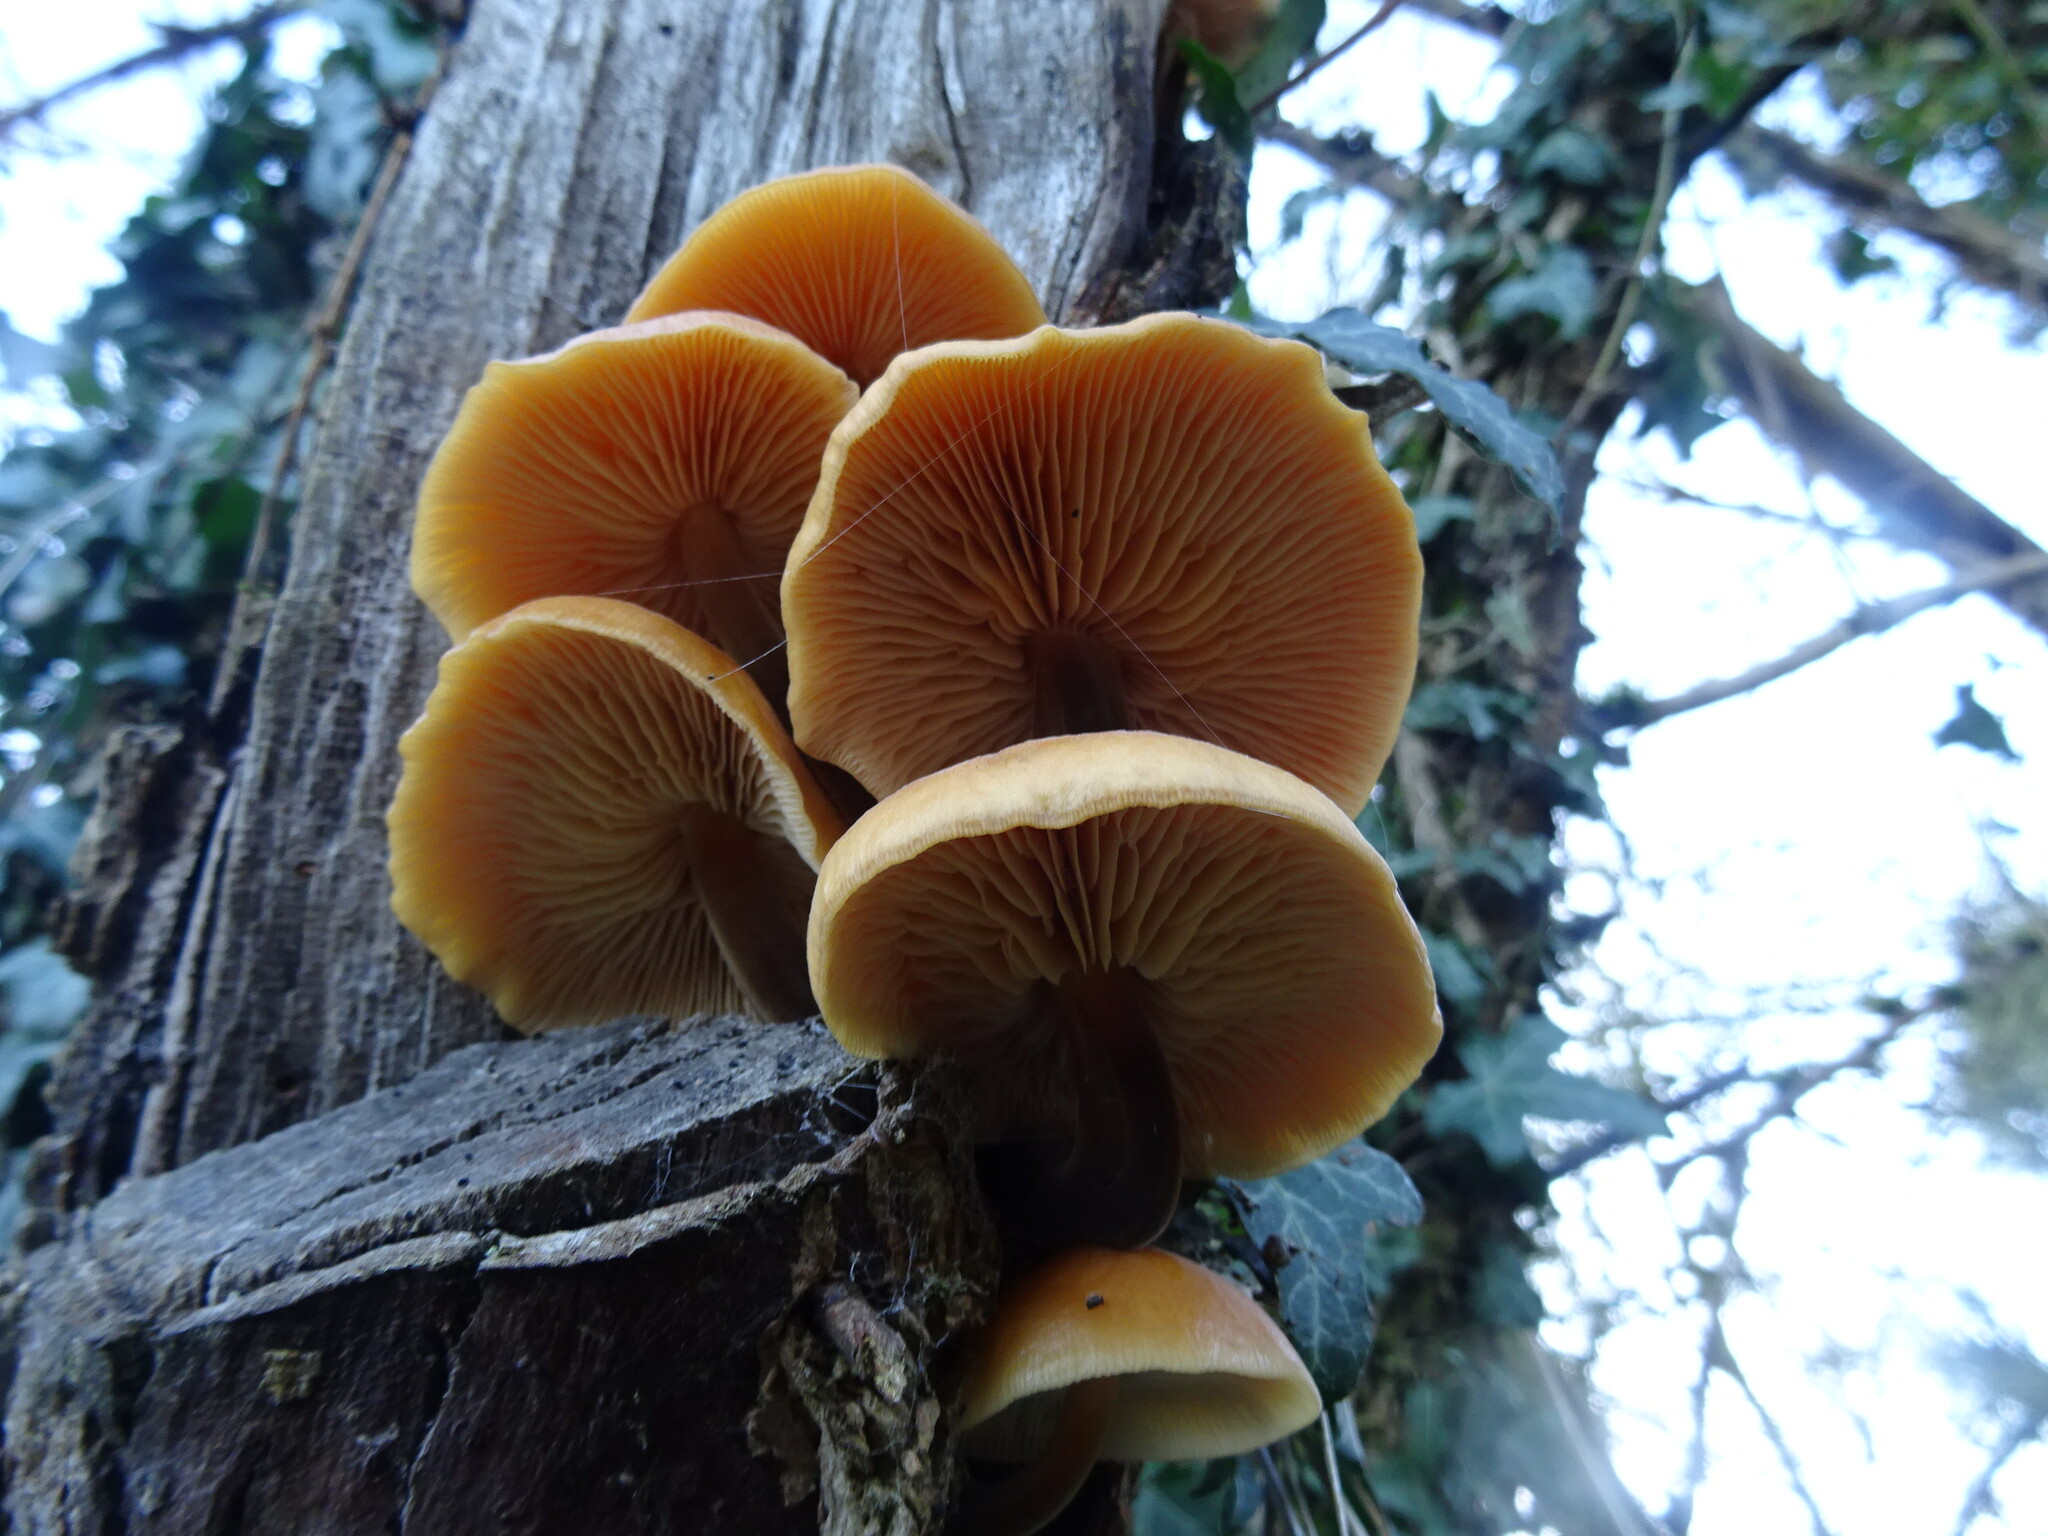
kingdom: Fungi
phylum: Basidiomycota
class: Agaricomycetes
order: Agaricales
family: Physalacriaceae
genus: Flammulina
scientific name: Flammulina
